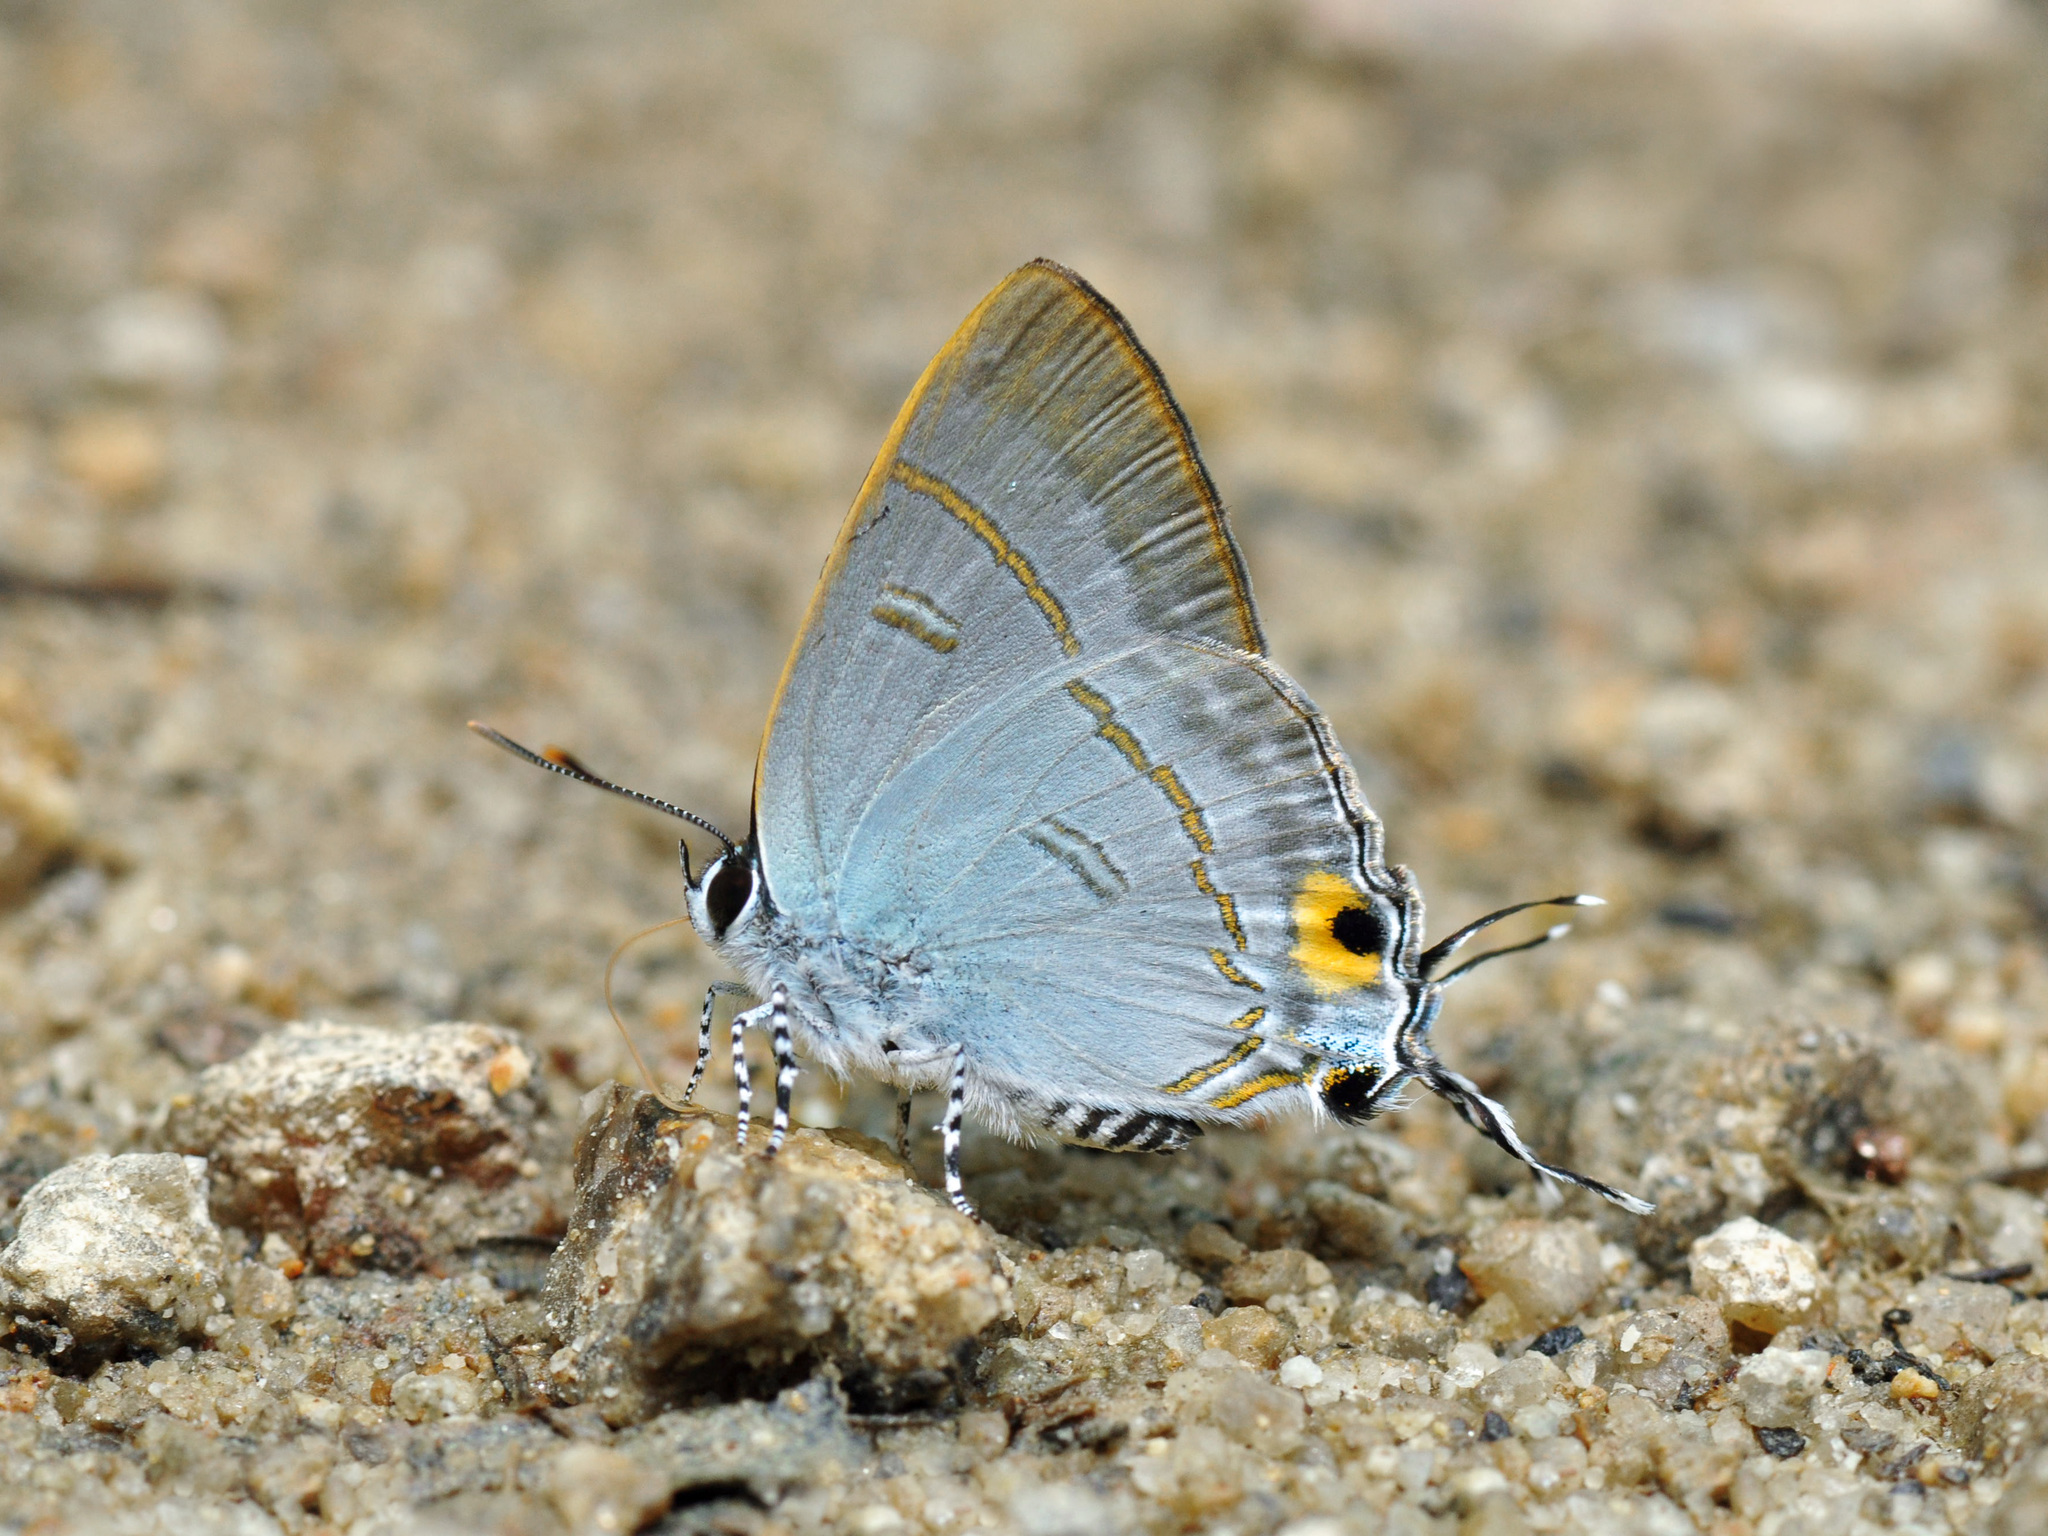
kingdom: Animalia
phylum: Arthropoda
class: Insecta
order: Lepidoptera
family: Lycaenidae
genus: Hypolycaena
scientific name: Hypolycaena erylus
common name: Common tit
